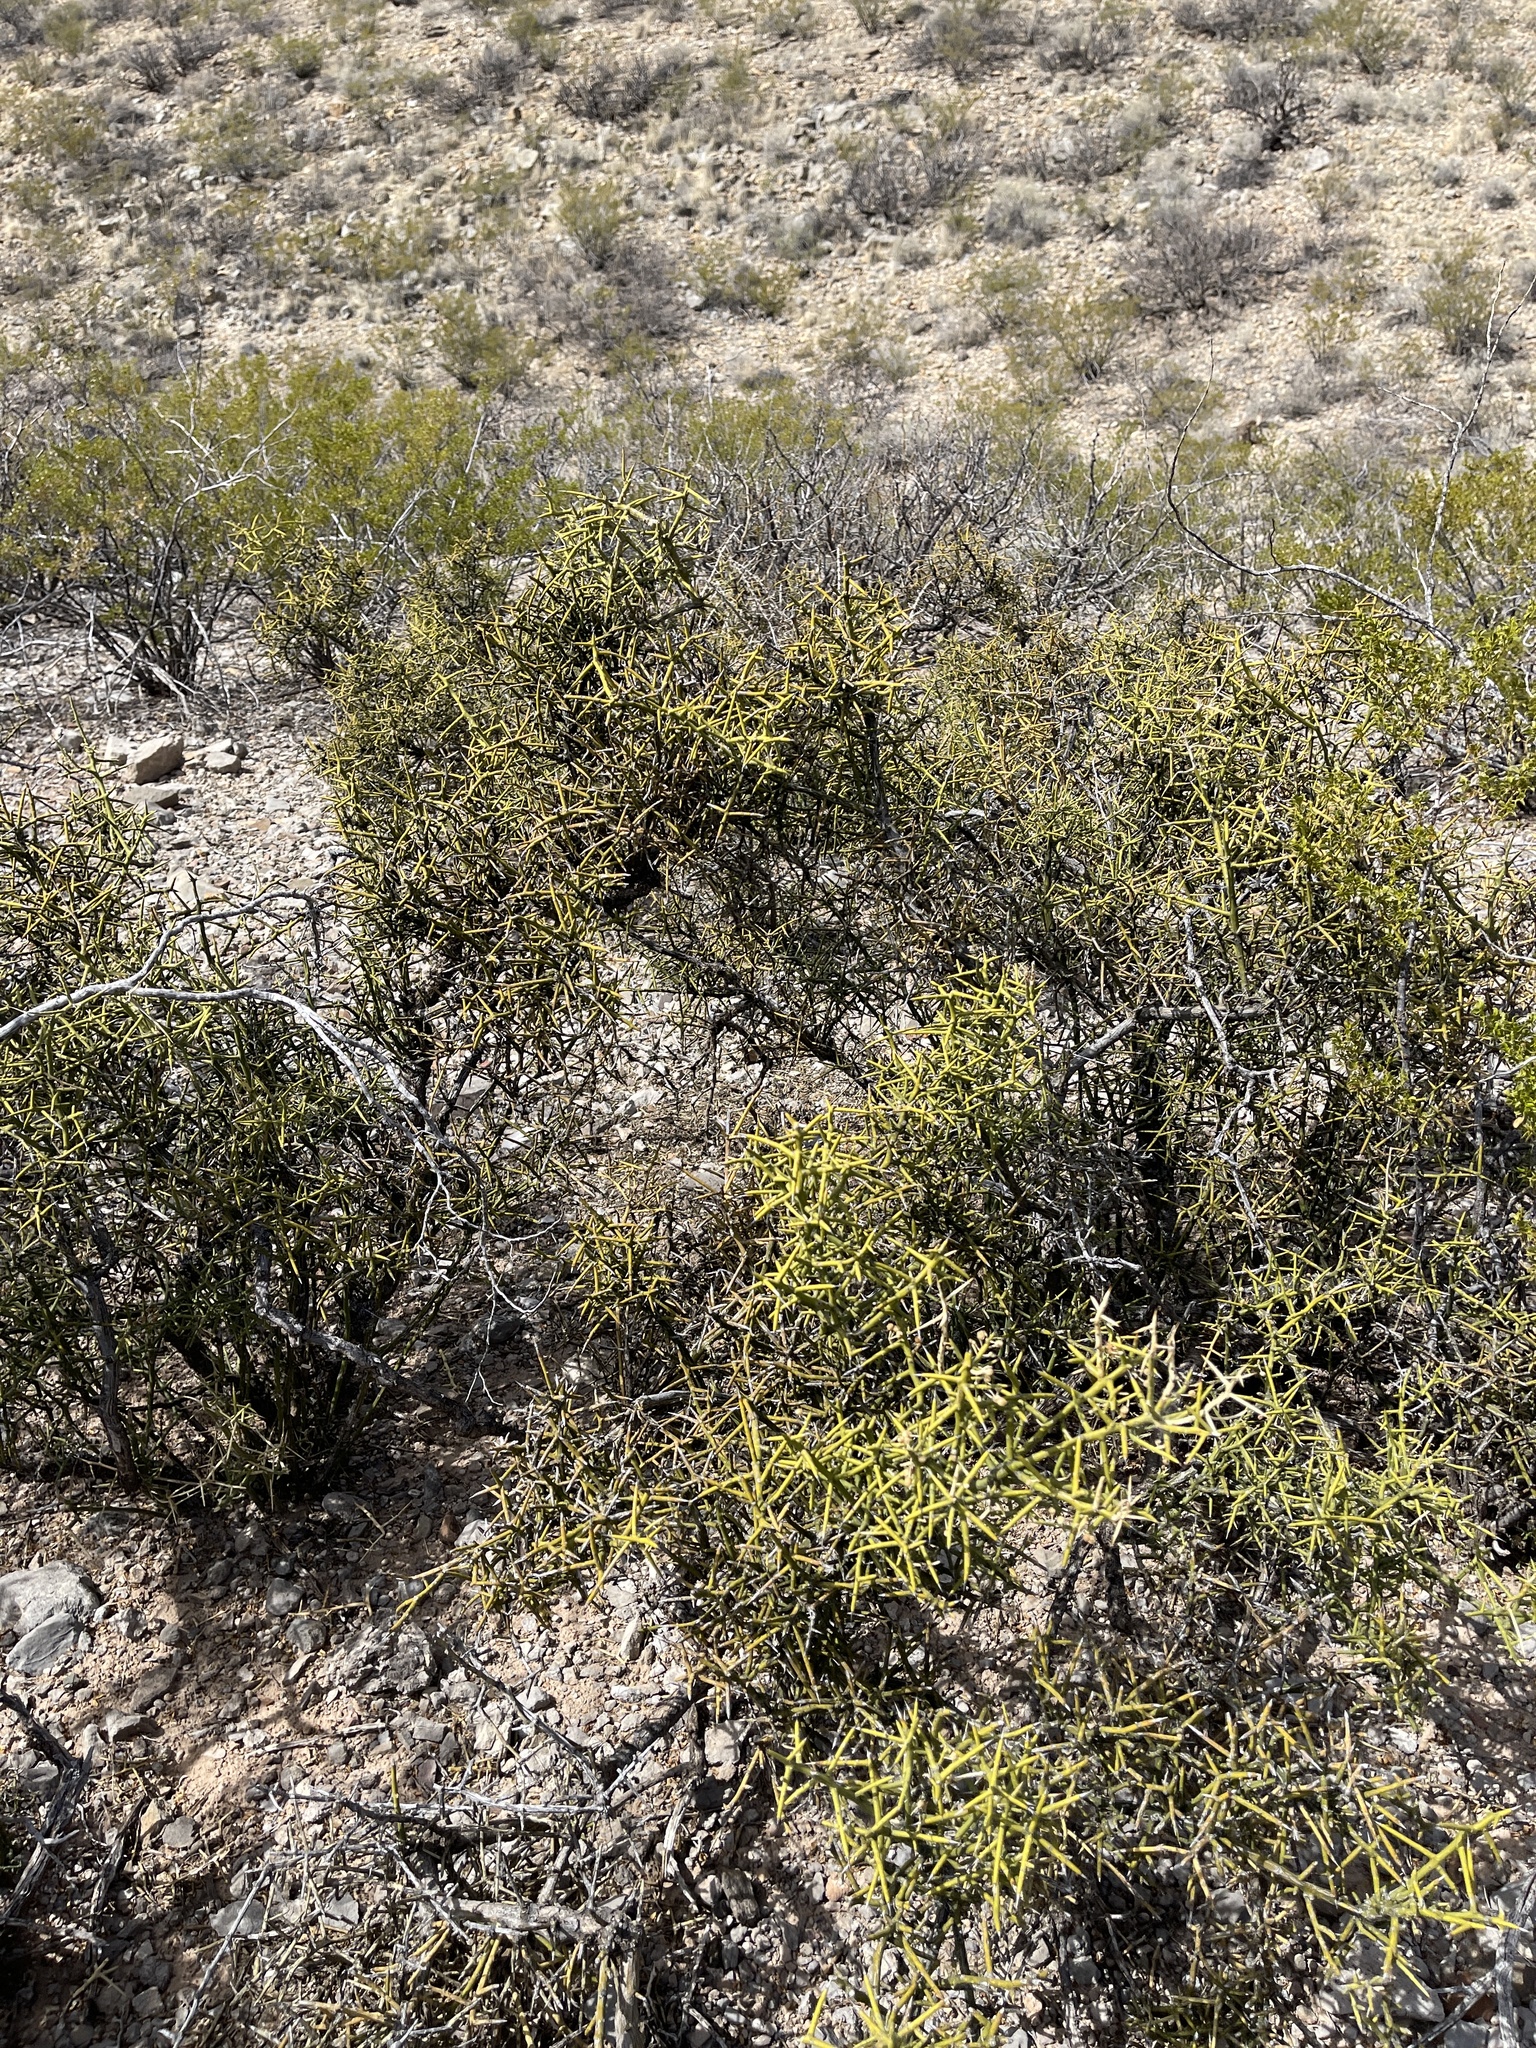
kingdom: Plantae
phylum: Tracheophyta
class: Magnoliopsida
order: Brassicales
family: Koeberliniaceae
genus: Koeberlinia
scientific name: Koeberlinia spinosa
